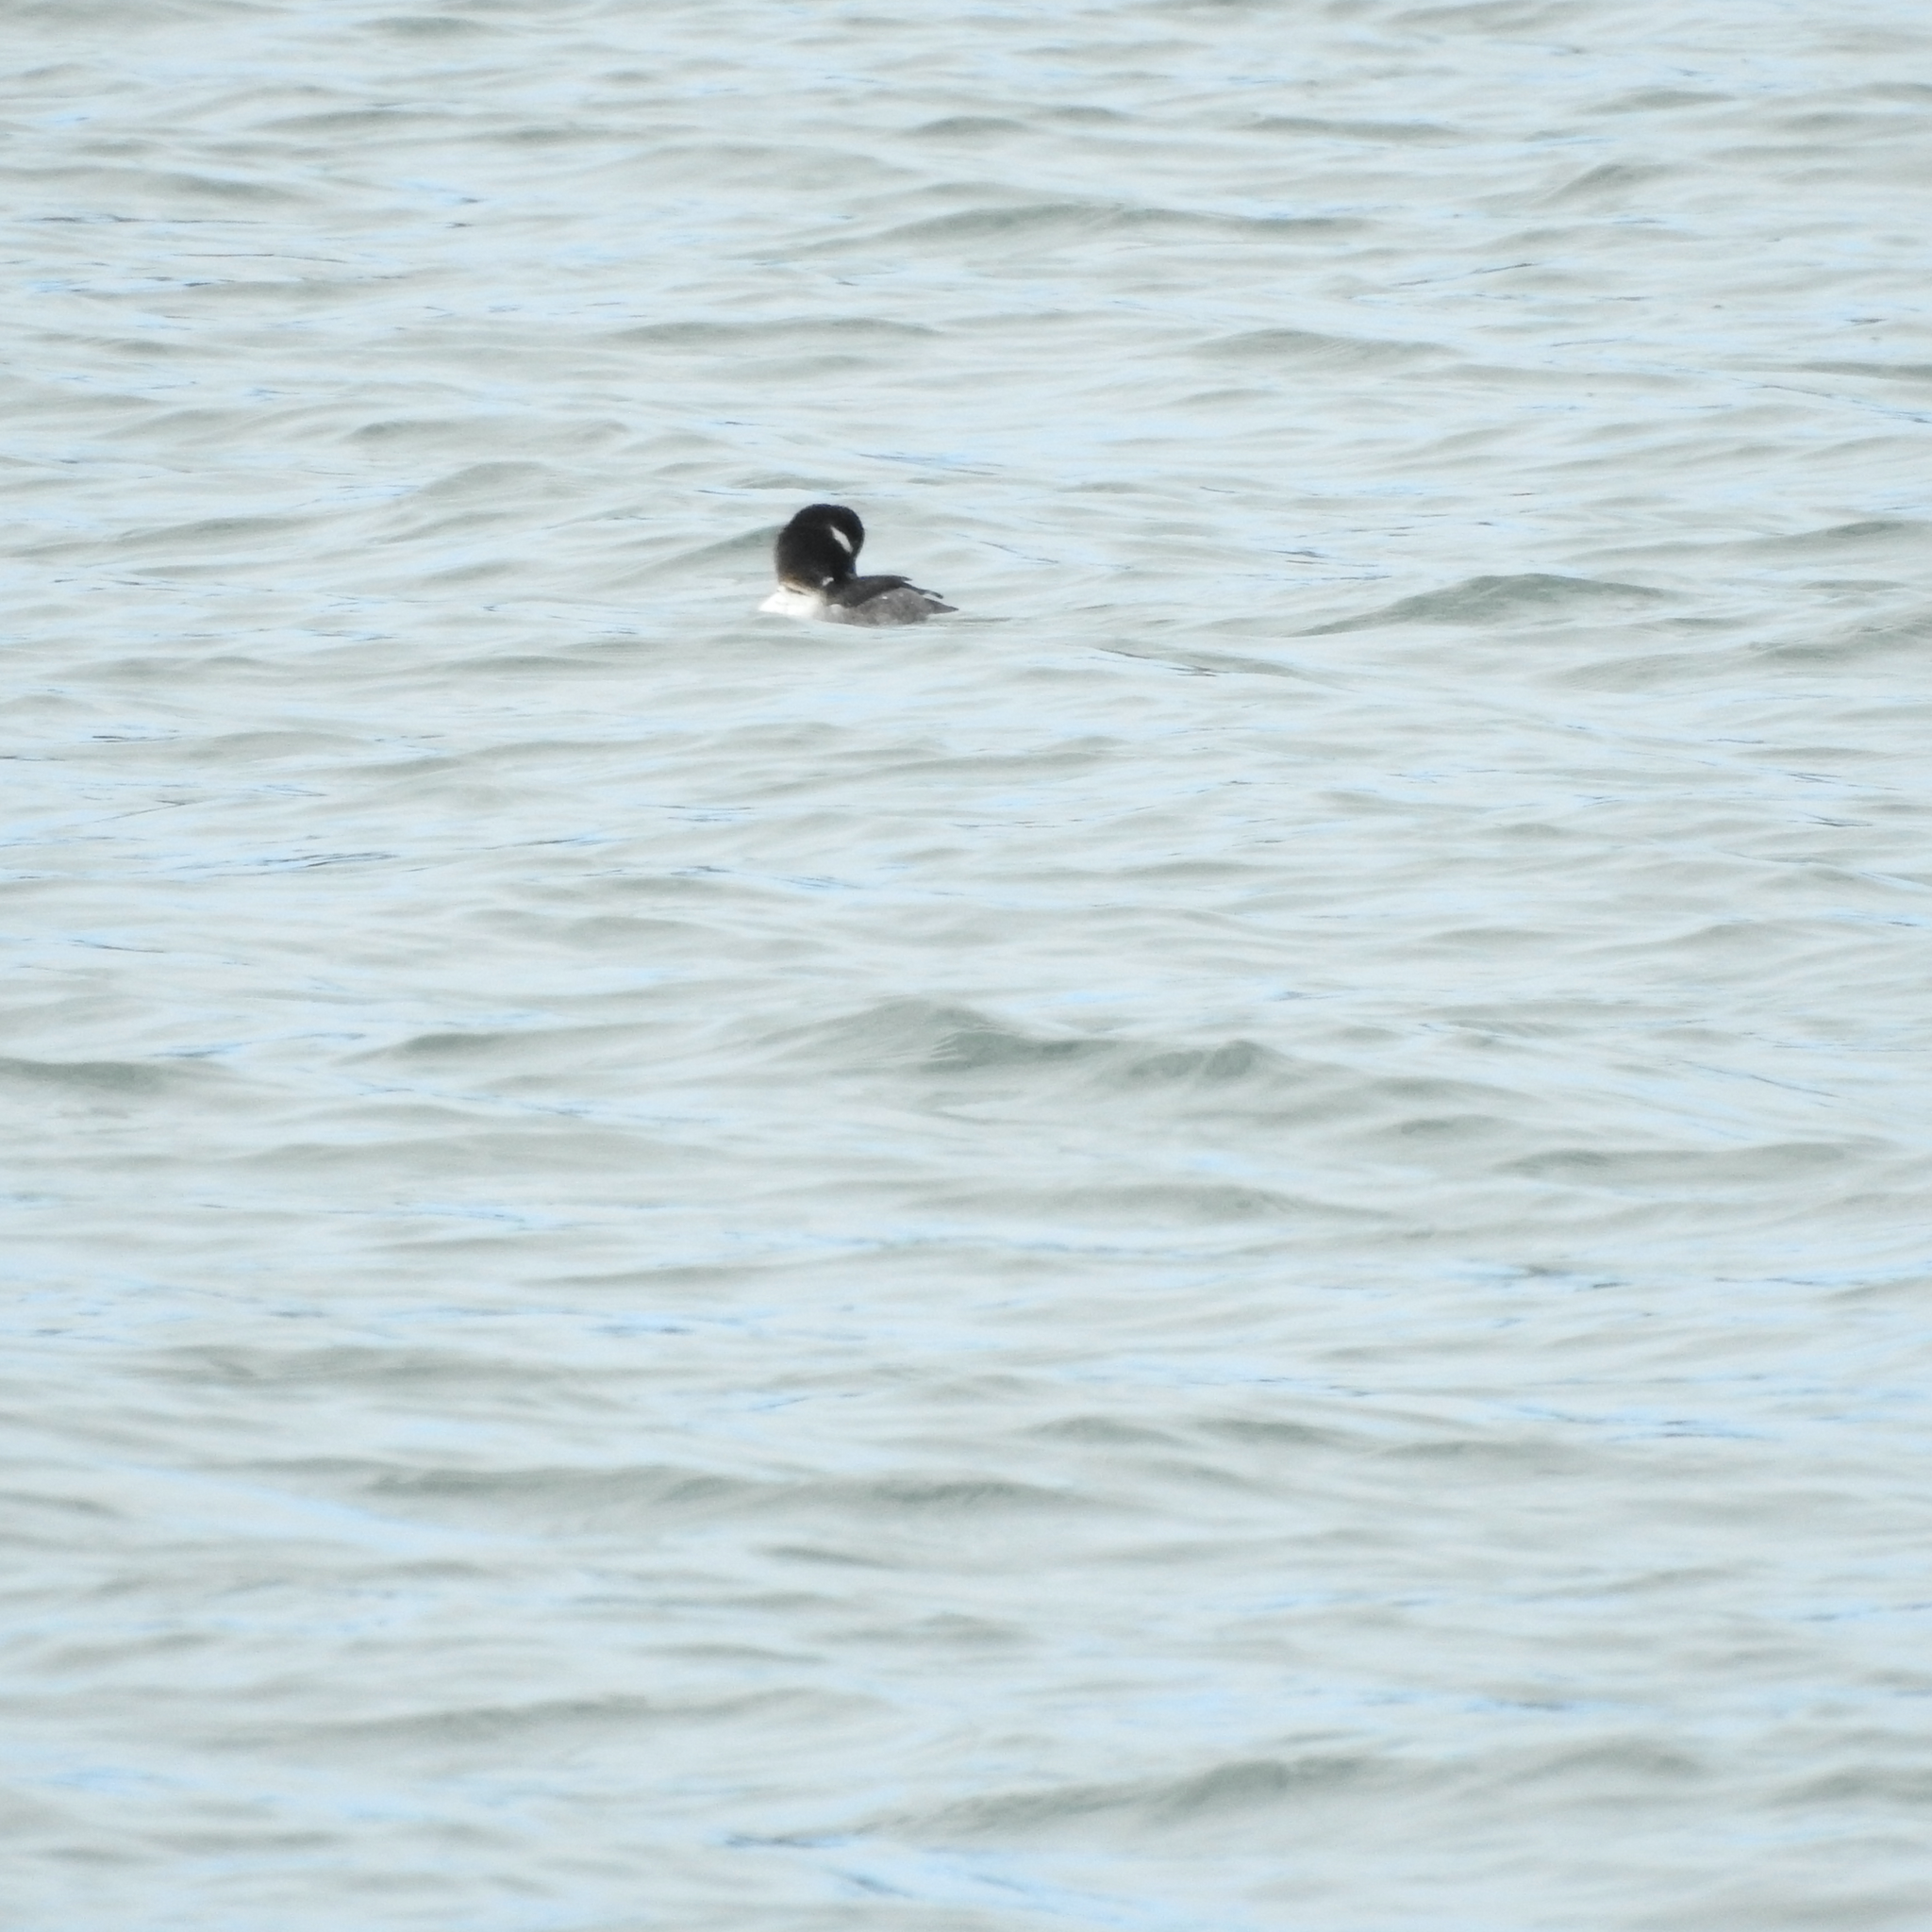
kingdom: Animalia
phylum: Chordata
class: Aves
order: Anseriformes
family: Anatidae
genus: Bucephala
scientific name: Bucephala albeola
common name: Bufflehead
